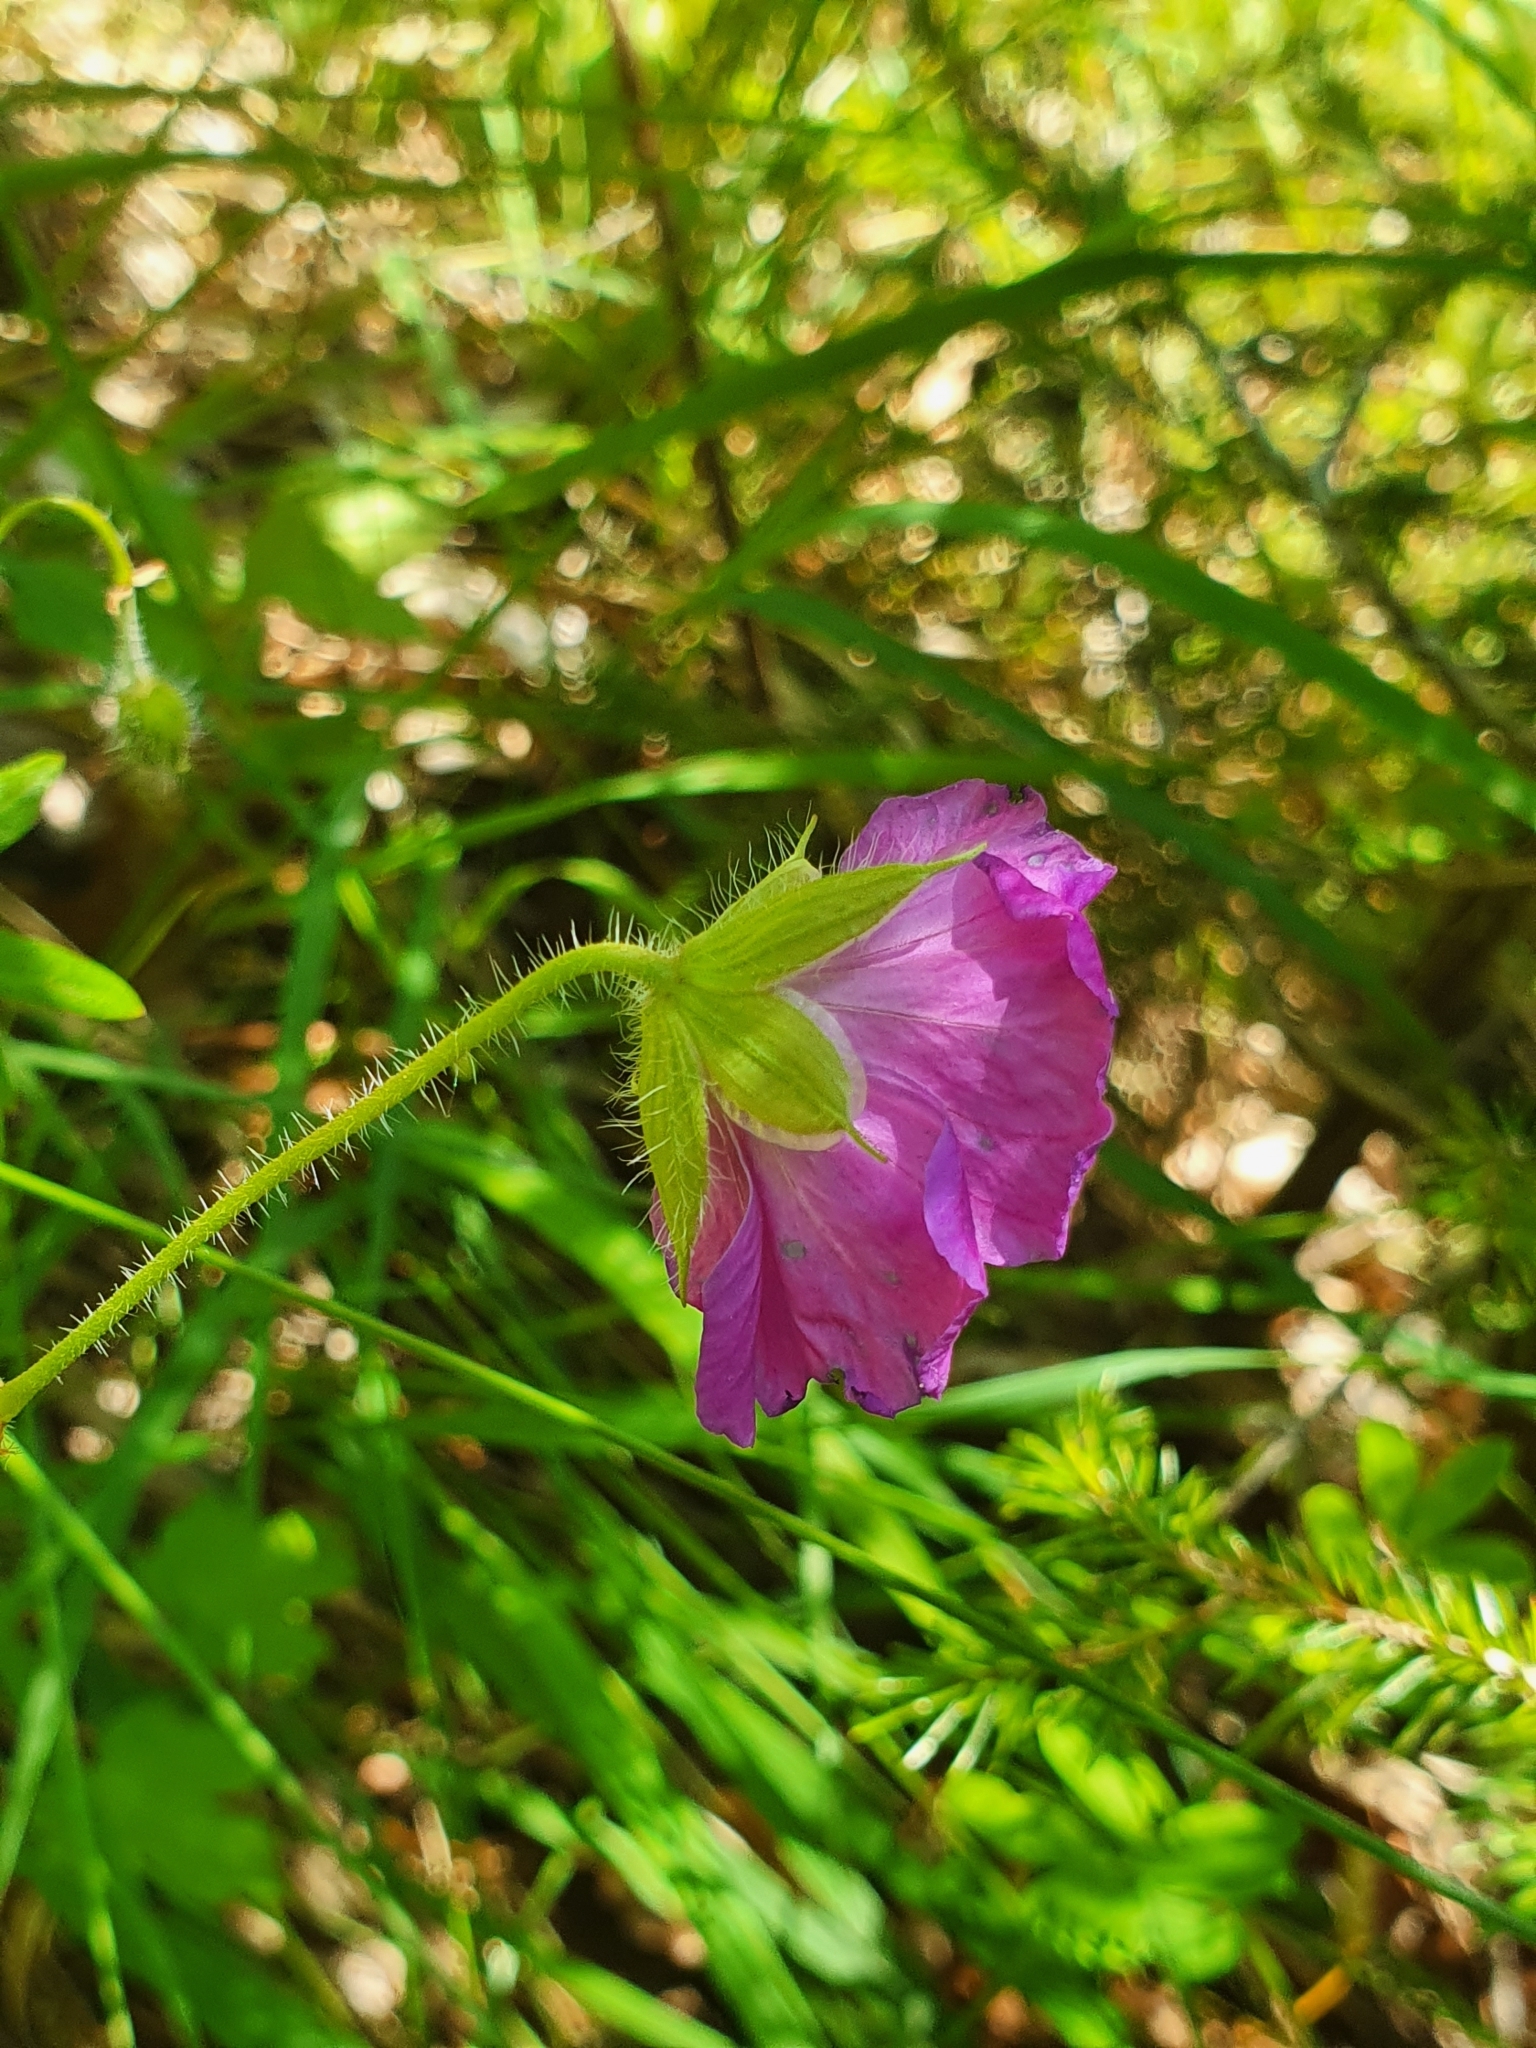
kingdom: Plantae
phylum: Tracheophyta
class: Magnoliopsida
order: Geraniales
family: Geraniaceae
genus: Geranium
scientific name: Geranium sanguineum
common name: Bloody crane's-bill
